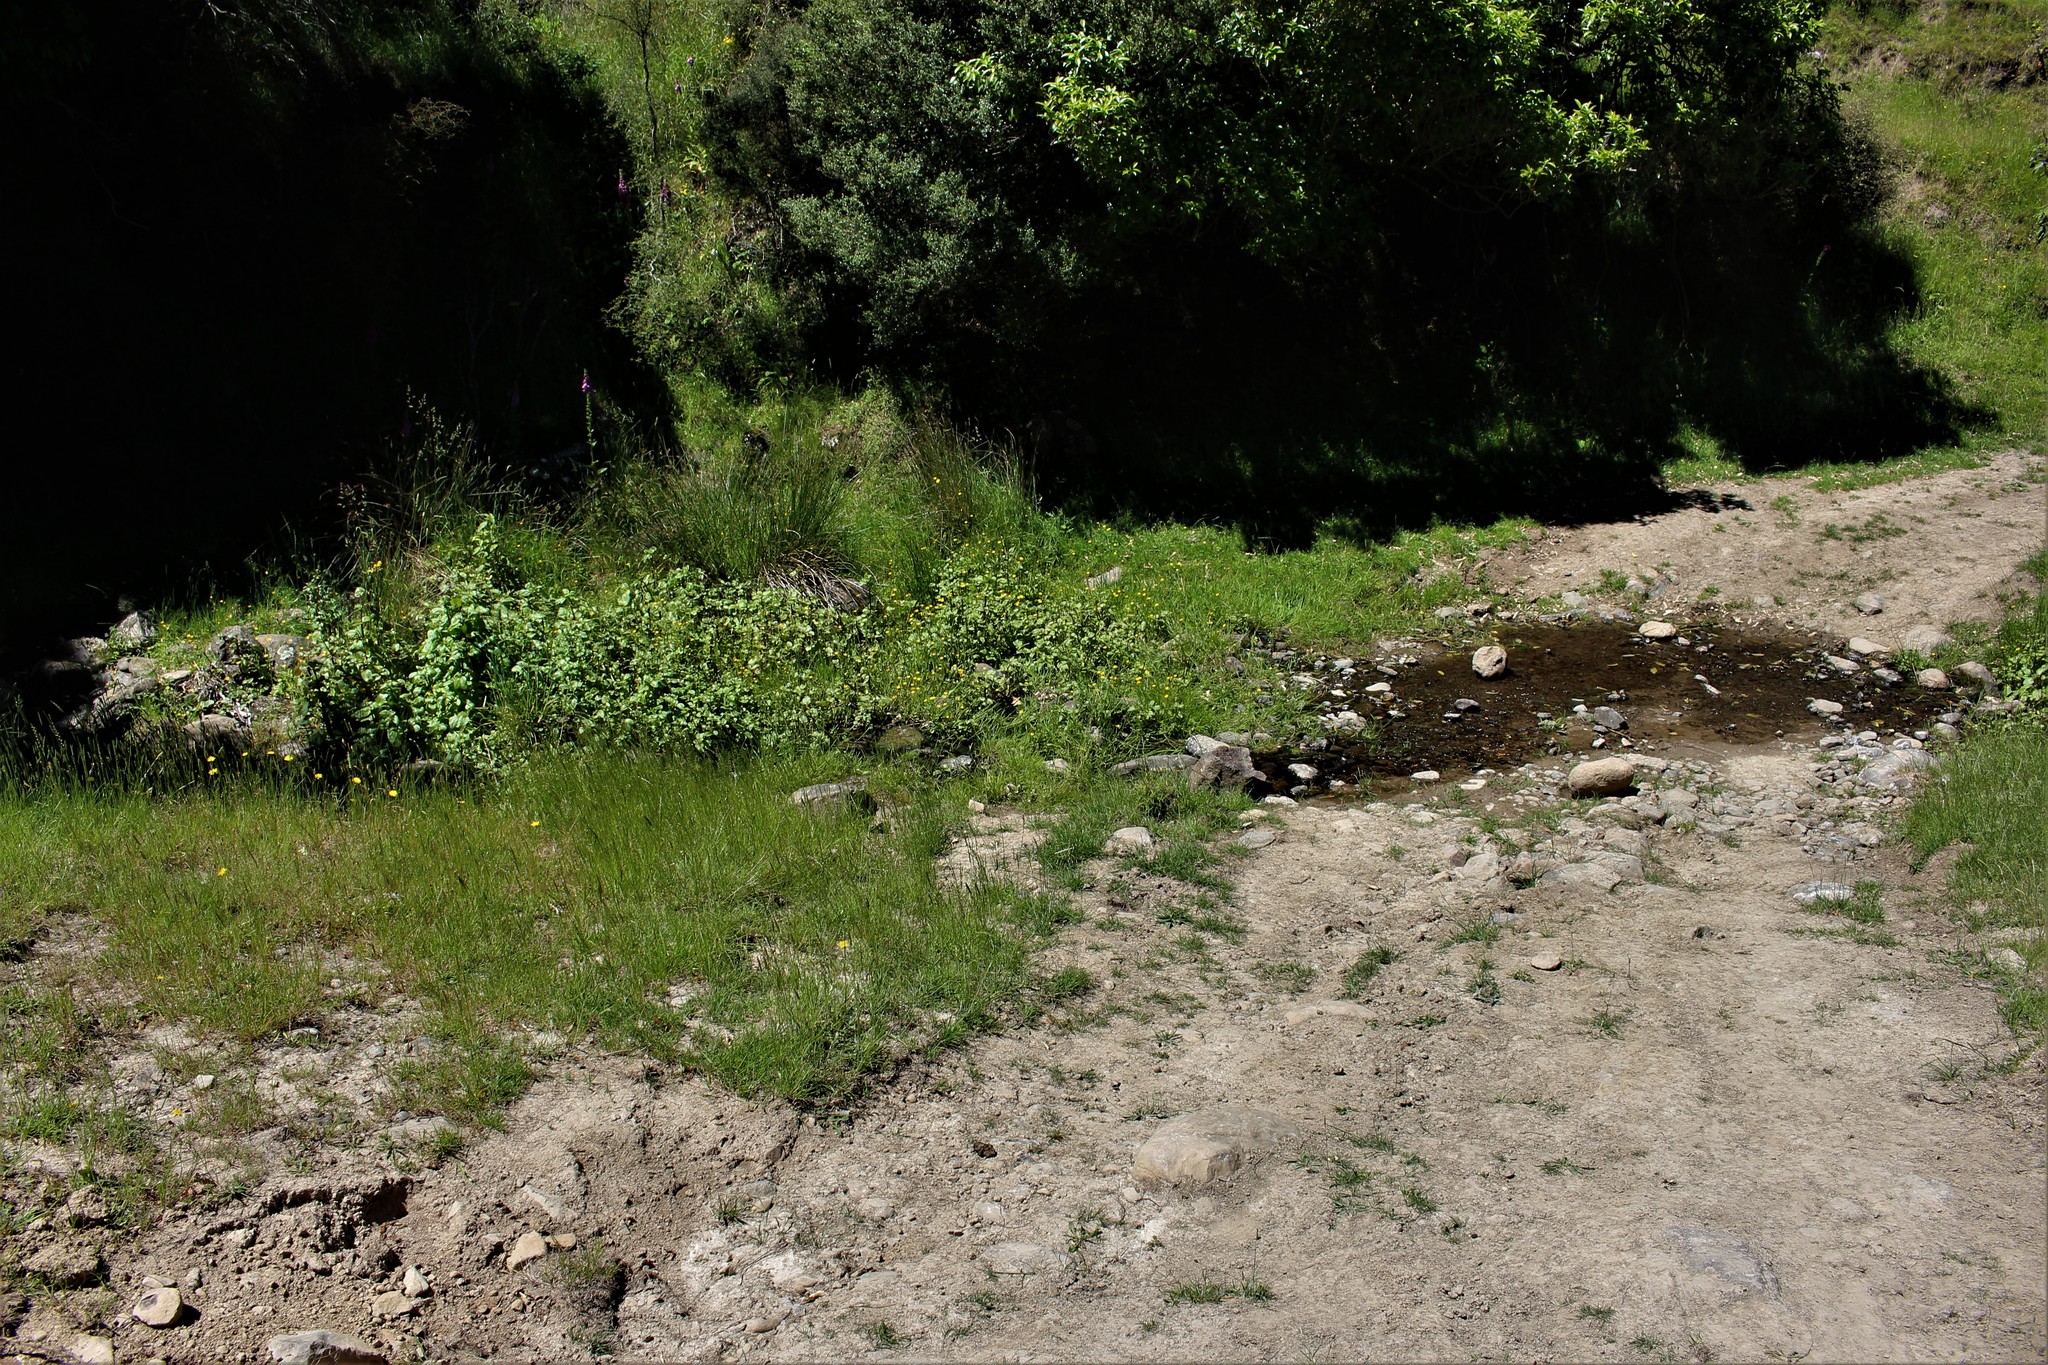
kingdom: Plantae
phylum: Tracheophyta
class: Magnoliopsida
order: Lamiales
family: Phrymaceae
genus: Erythranthe
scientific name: Erythranthe guttata
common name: Monkeyflower
